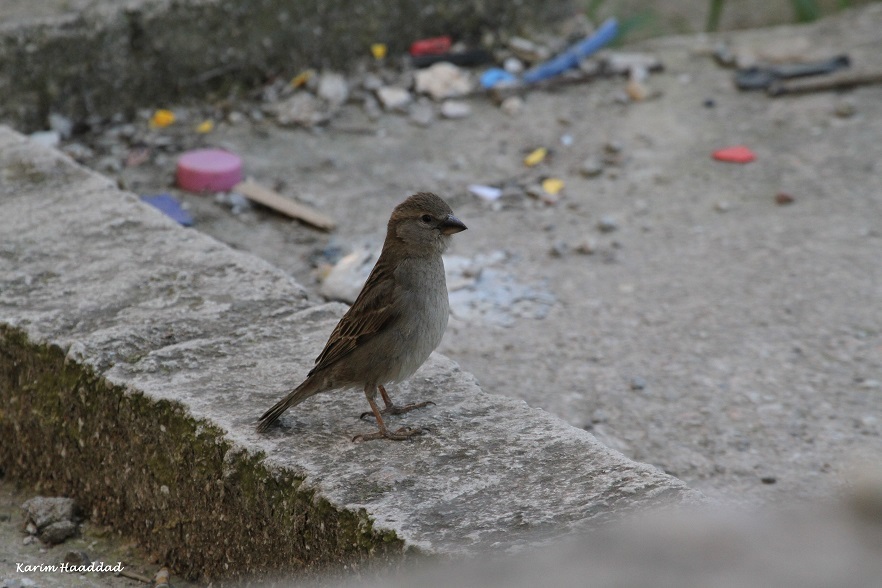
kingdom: Animalia
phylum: Chordata
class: Aves
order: Passeriformes
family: Passeridae
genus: Passer
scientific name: Passer hispaniolensis
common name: Spanish sparrow
